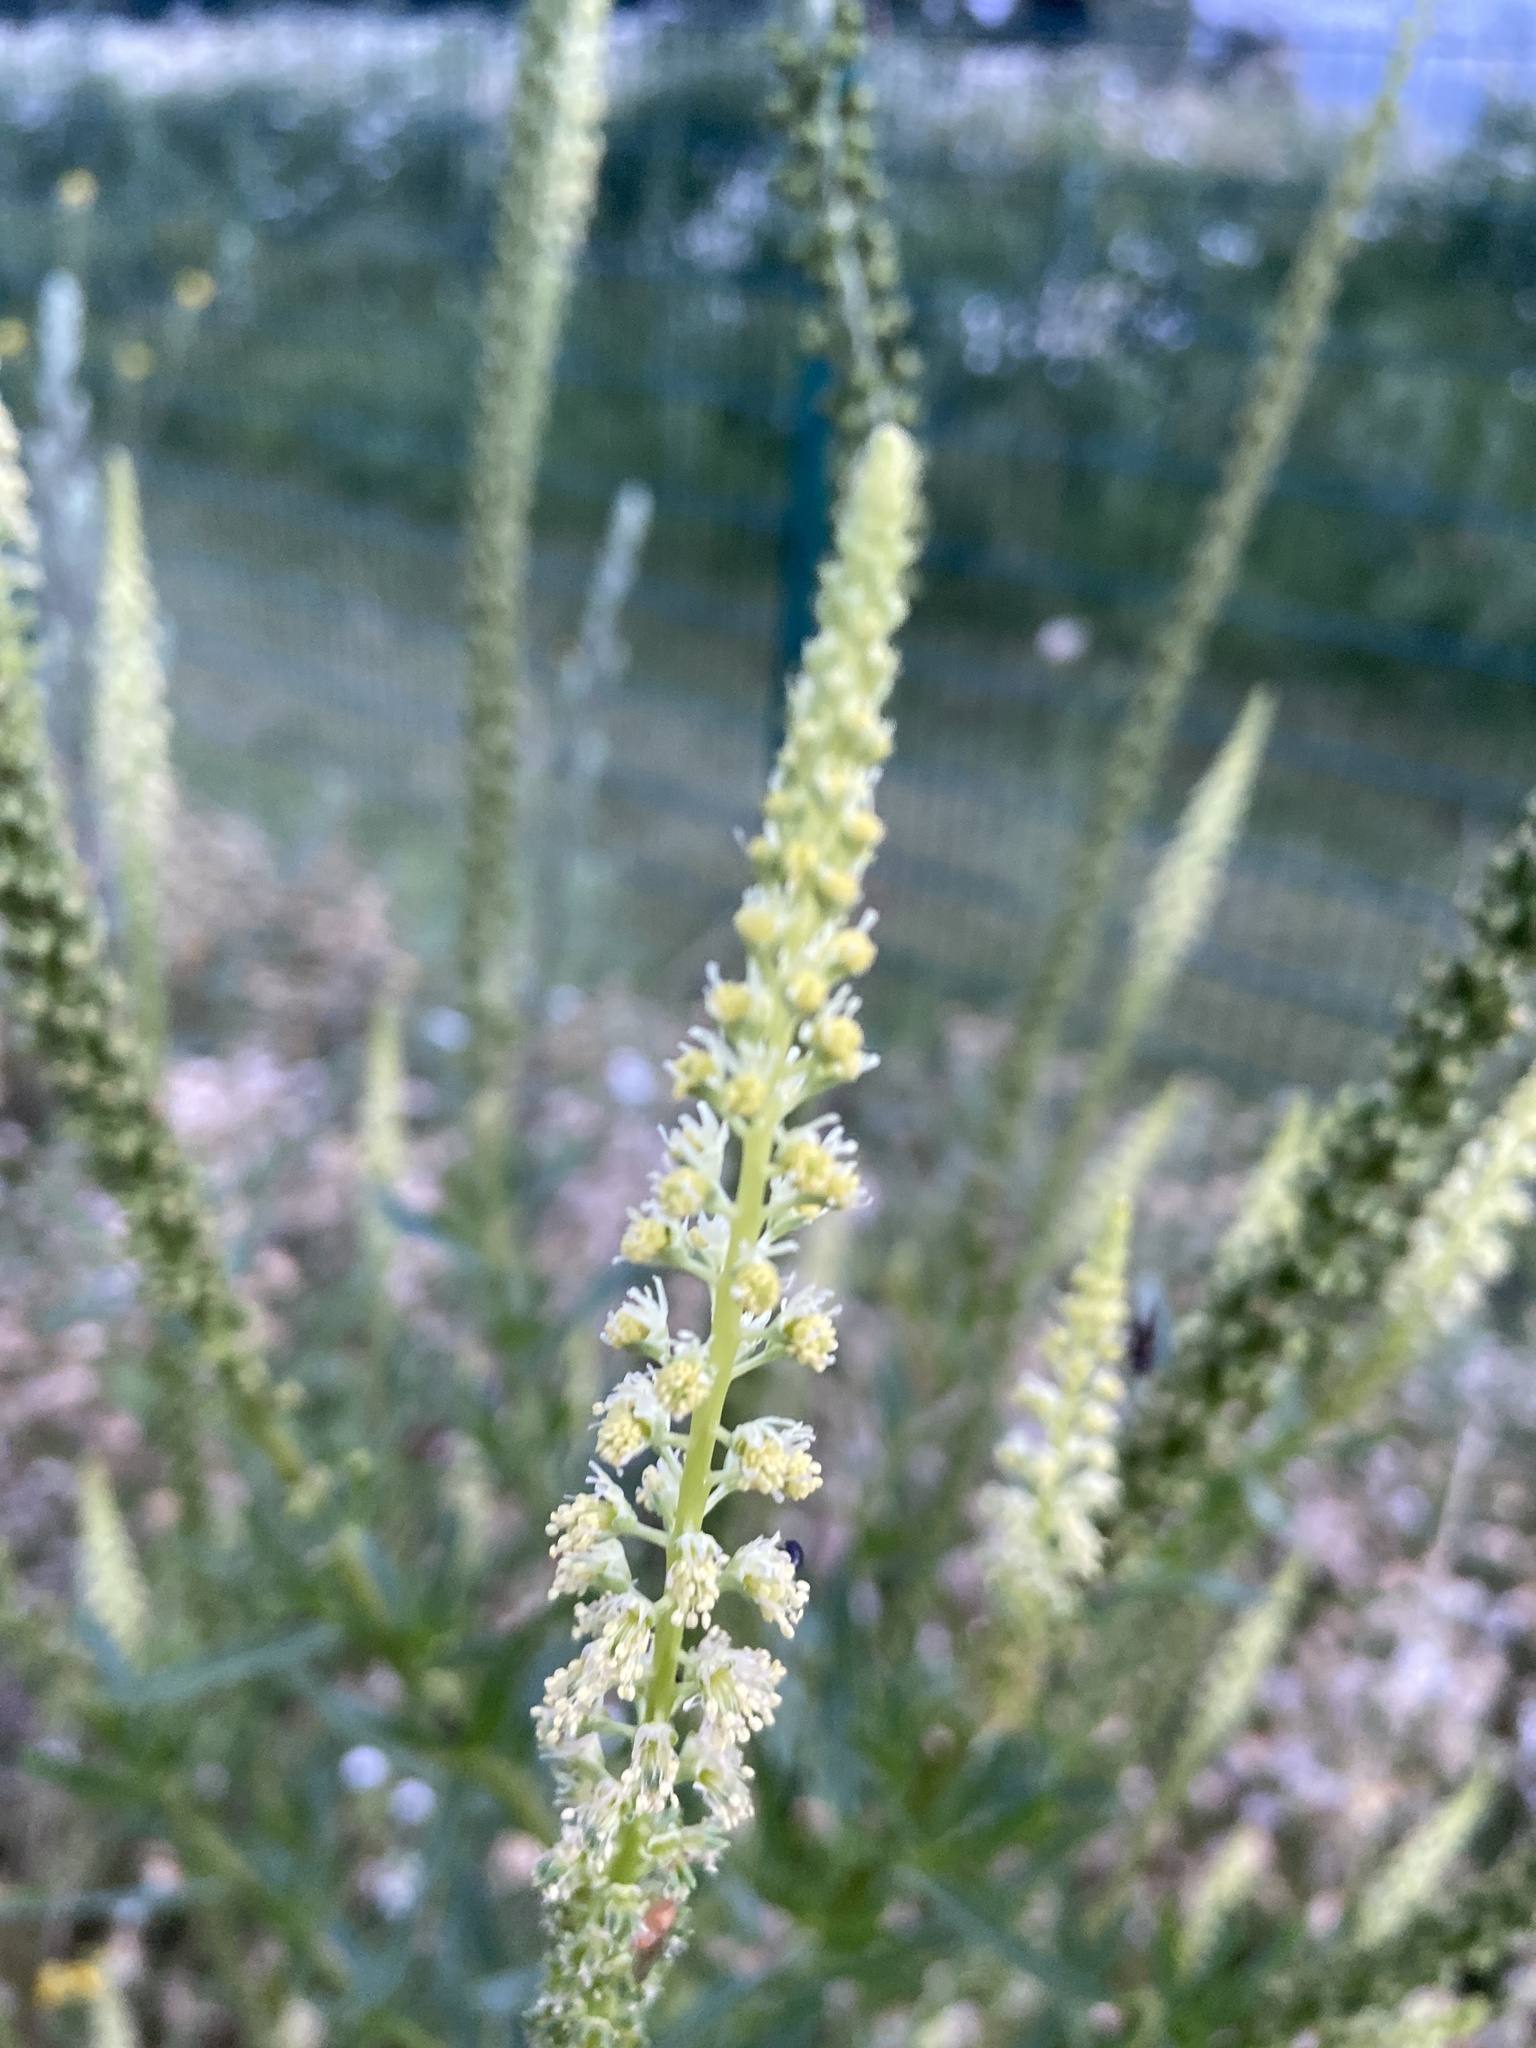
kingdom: Plantae
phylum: Tracheophyta
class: Magnoliopsida
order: Brassicales
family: Resedaceae
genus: Reseda
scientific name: Reseda luteola
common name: Weld
